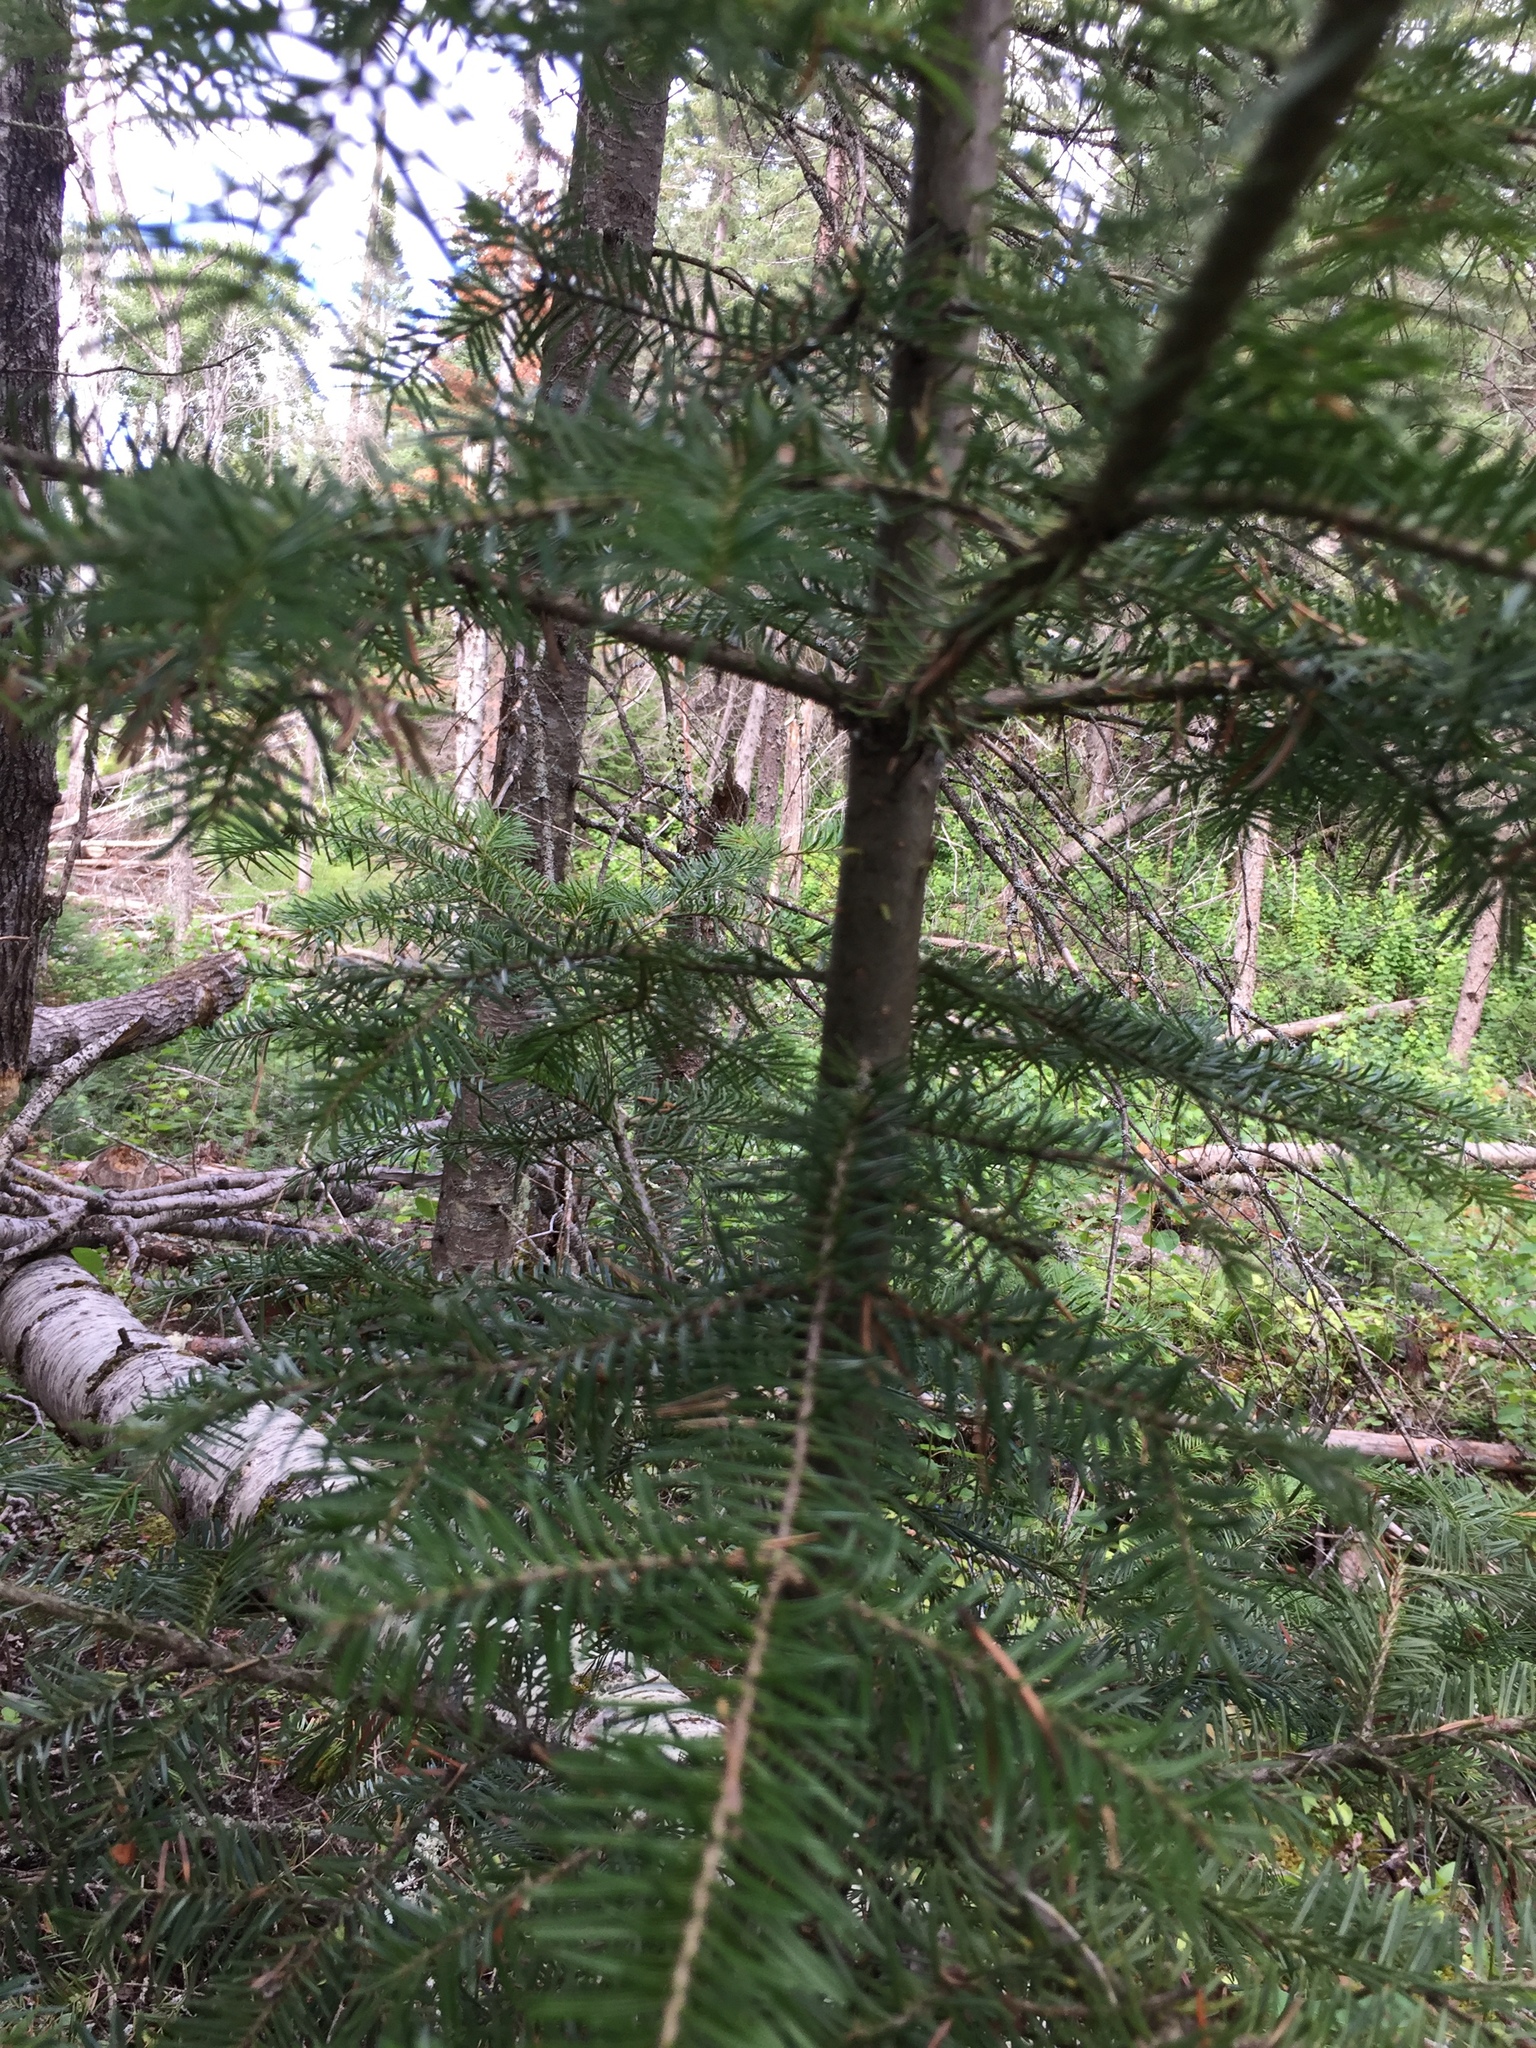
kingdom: Plantae
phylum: Tracheophyta
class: Pinopsida
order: Pinales
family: Pinaceae
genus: Abies
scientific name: Abies balsamea
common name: Balsam fir
